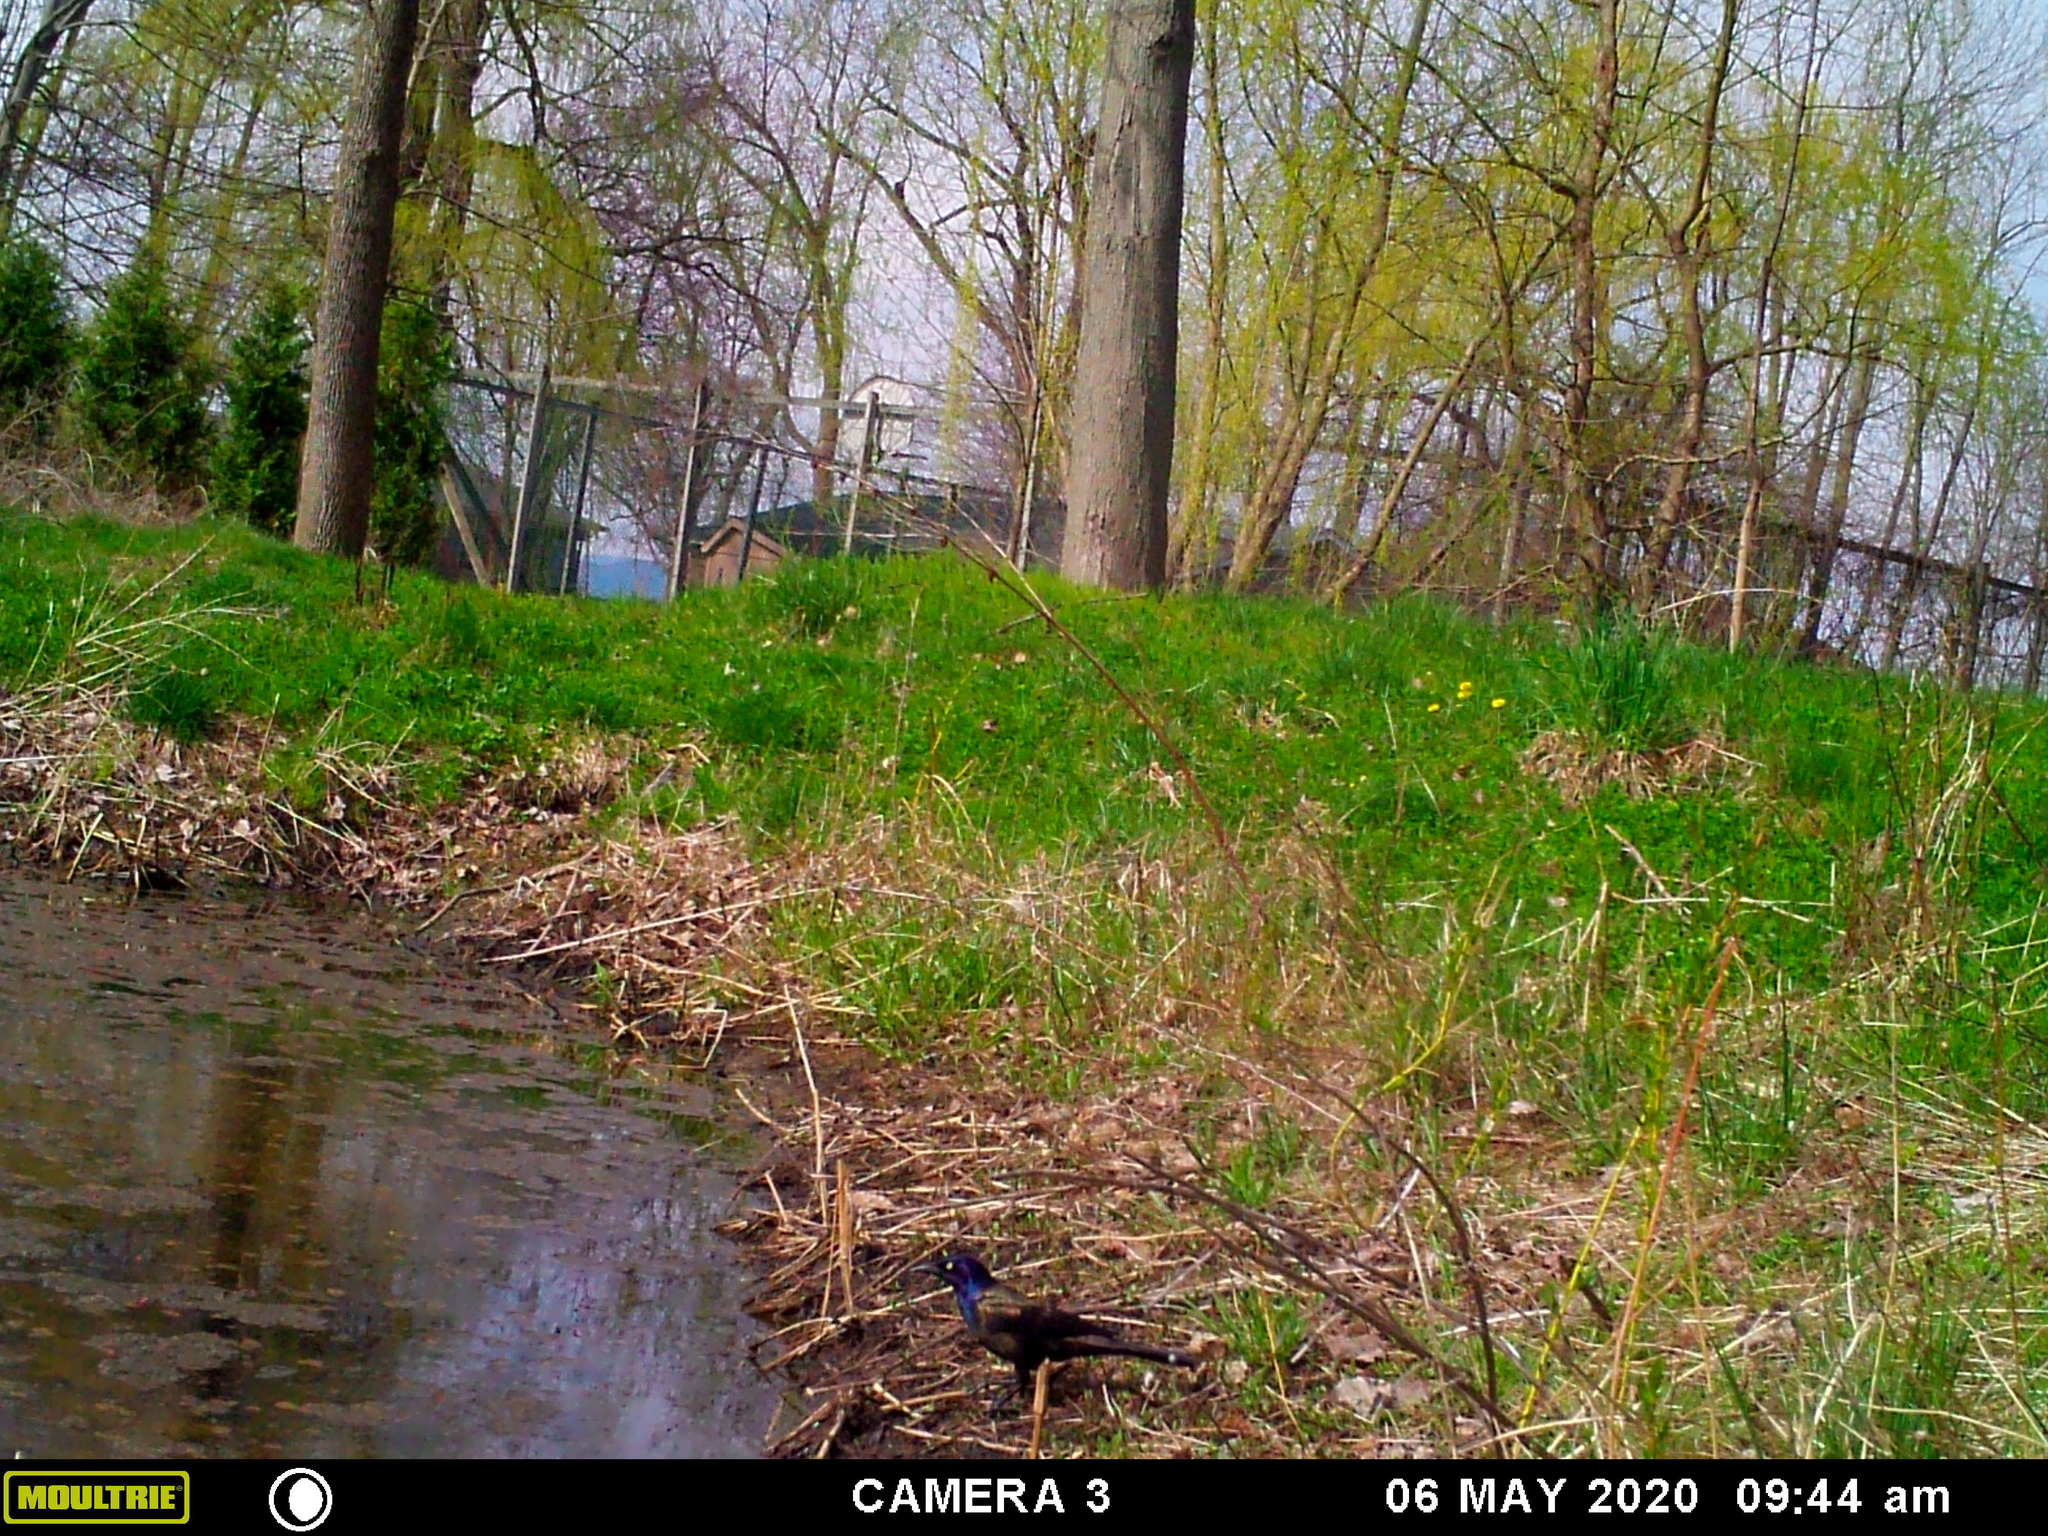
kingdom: Animalia
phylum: Chordata
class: Aves
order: Passeriformes
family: Icteridae
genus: Quiscalus
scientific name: Quiscalus quiscula
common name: Common grackle
